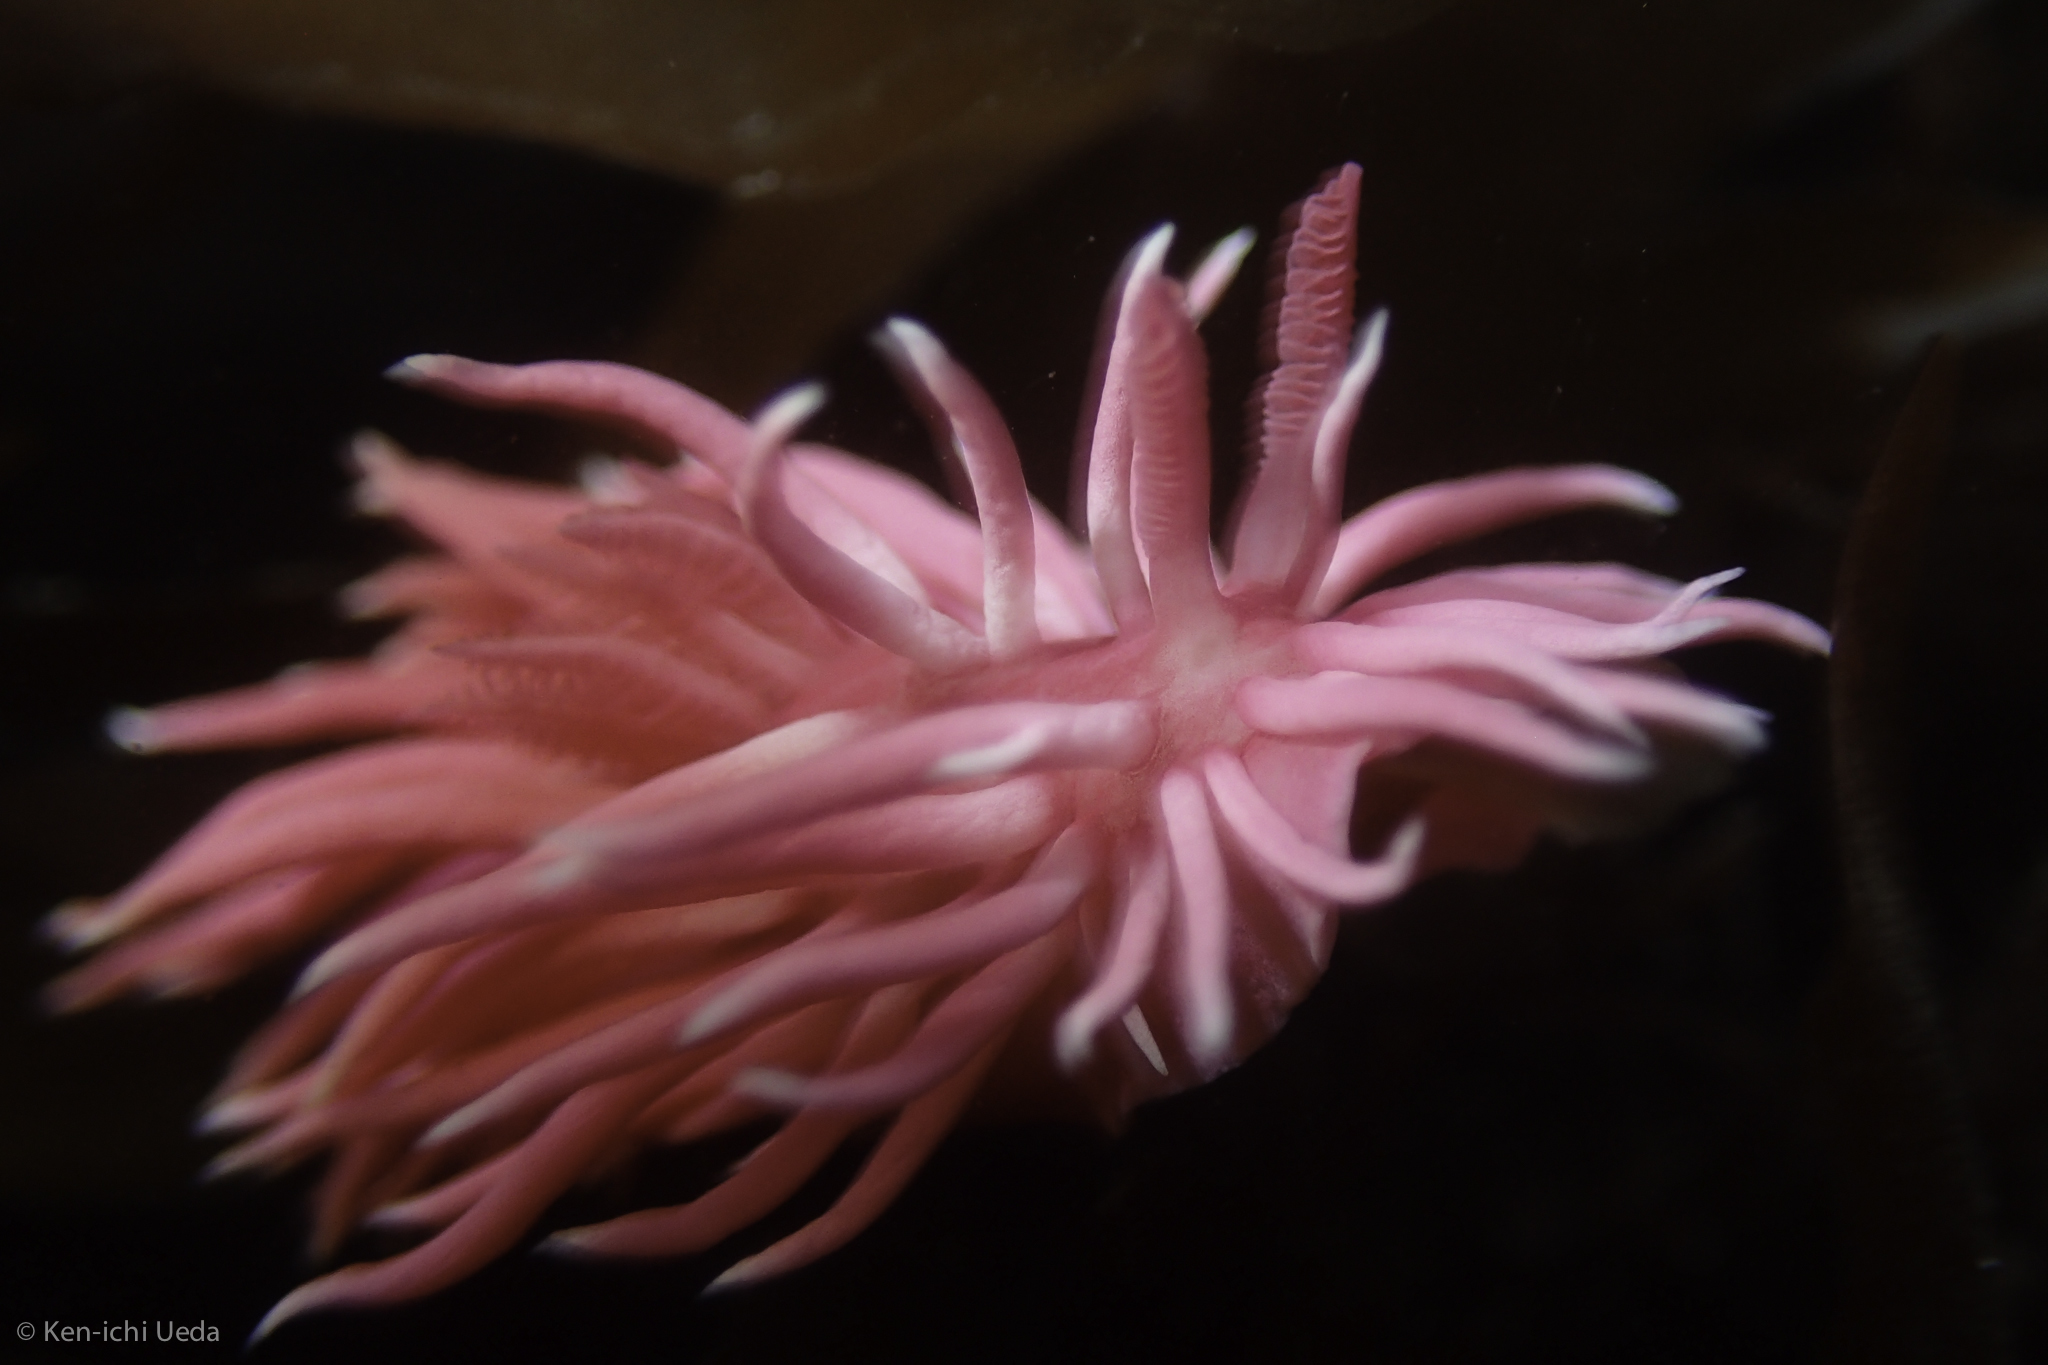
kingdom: Animalia
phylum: Mollusca
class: Gastropoda
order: Nudibranchia
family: Goniodorididae
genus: Okenia
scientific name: Okenia
